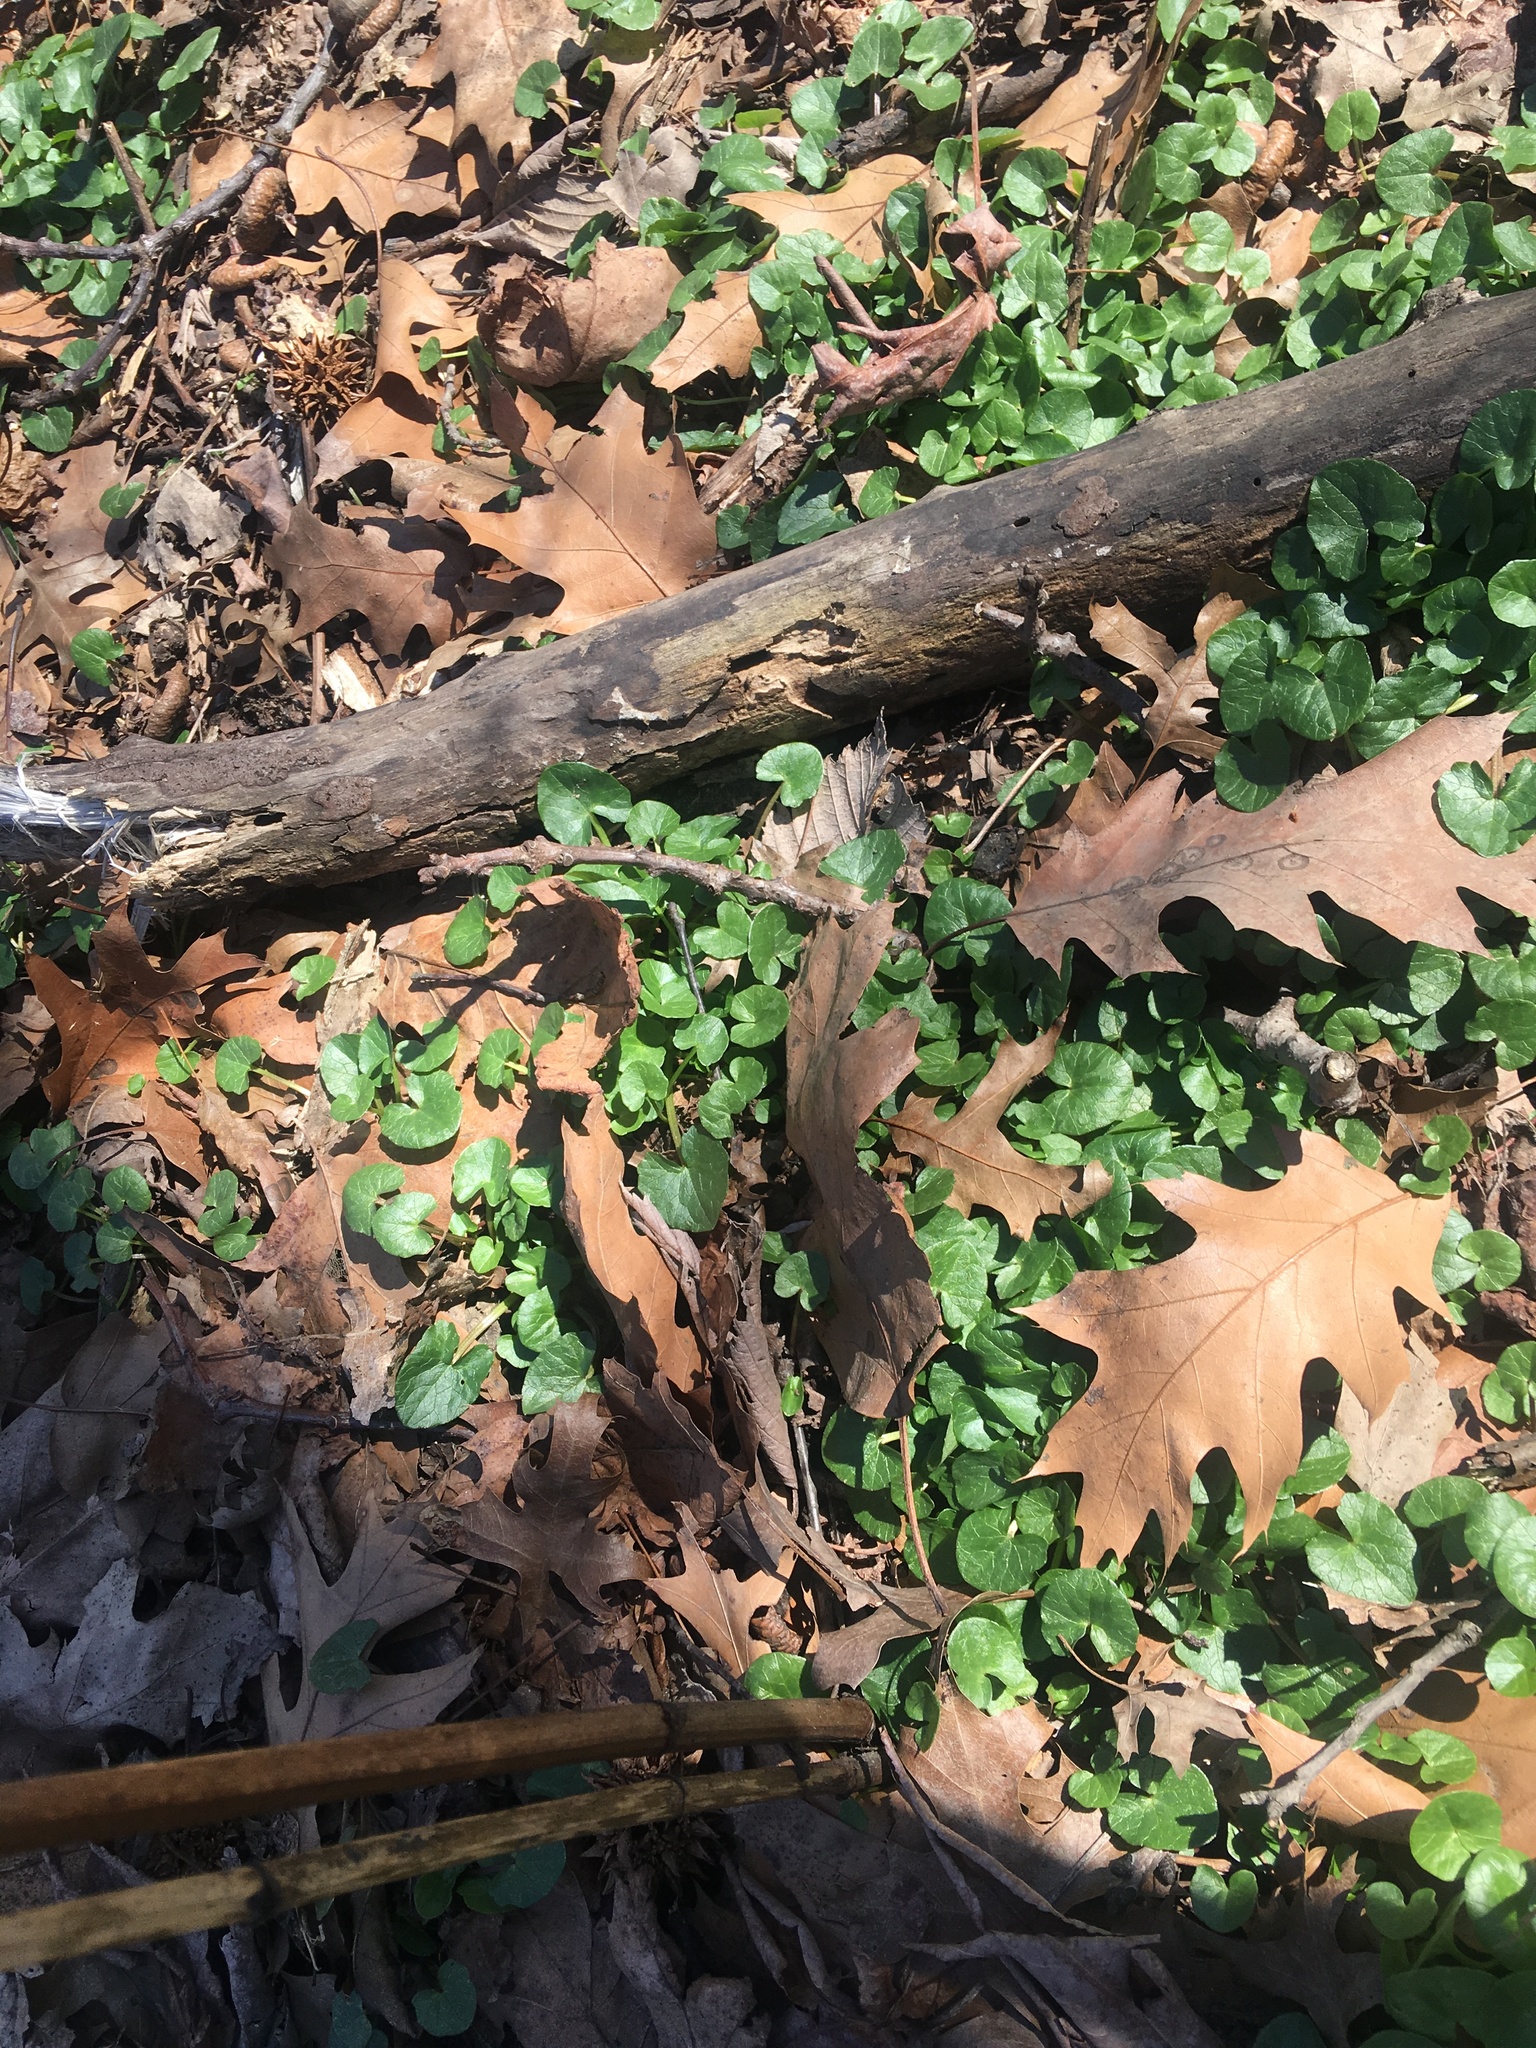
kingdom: Plantae
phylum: Tracheophyta
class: Magnoliopsida
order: Ranunculales
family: Ranunculaceae
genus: Ficaria
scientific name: Ficaria verna
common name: Lesser celandine
